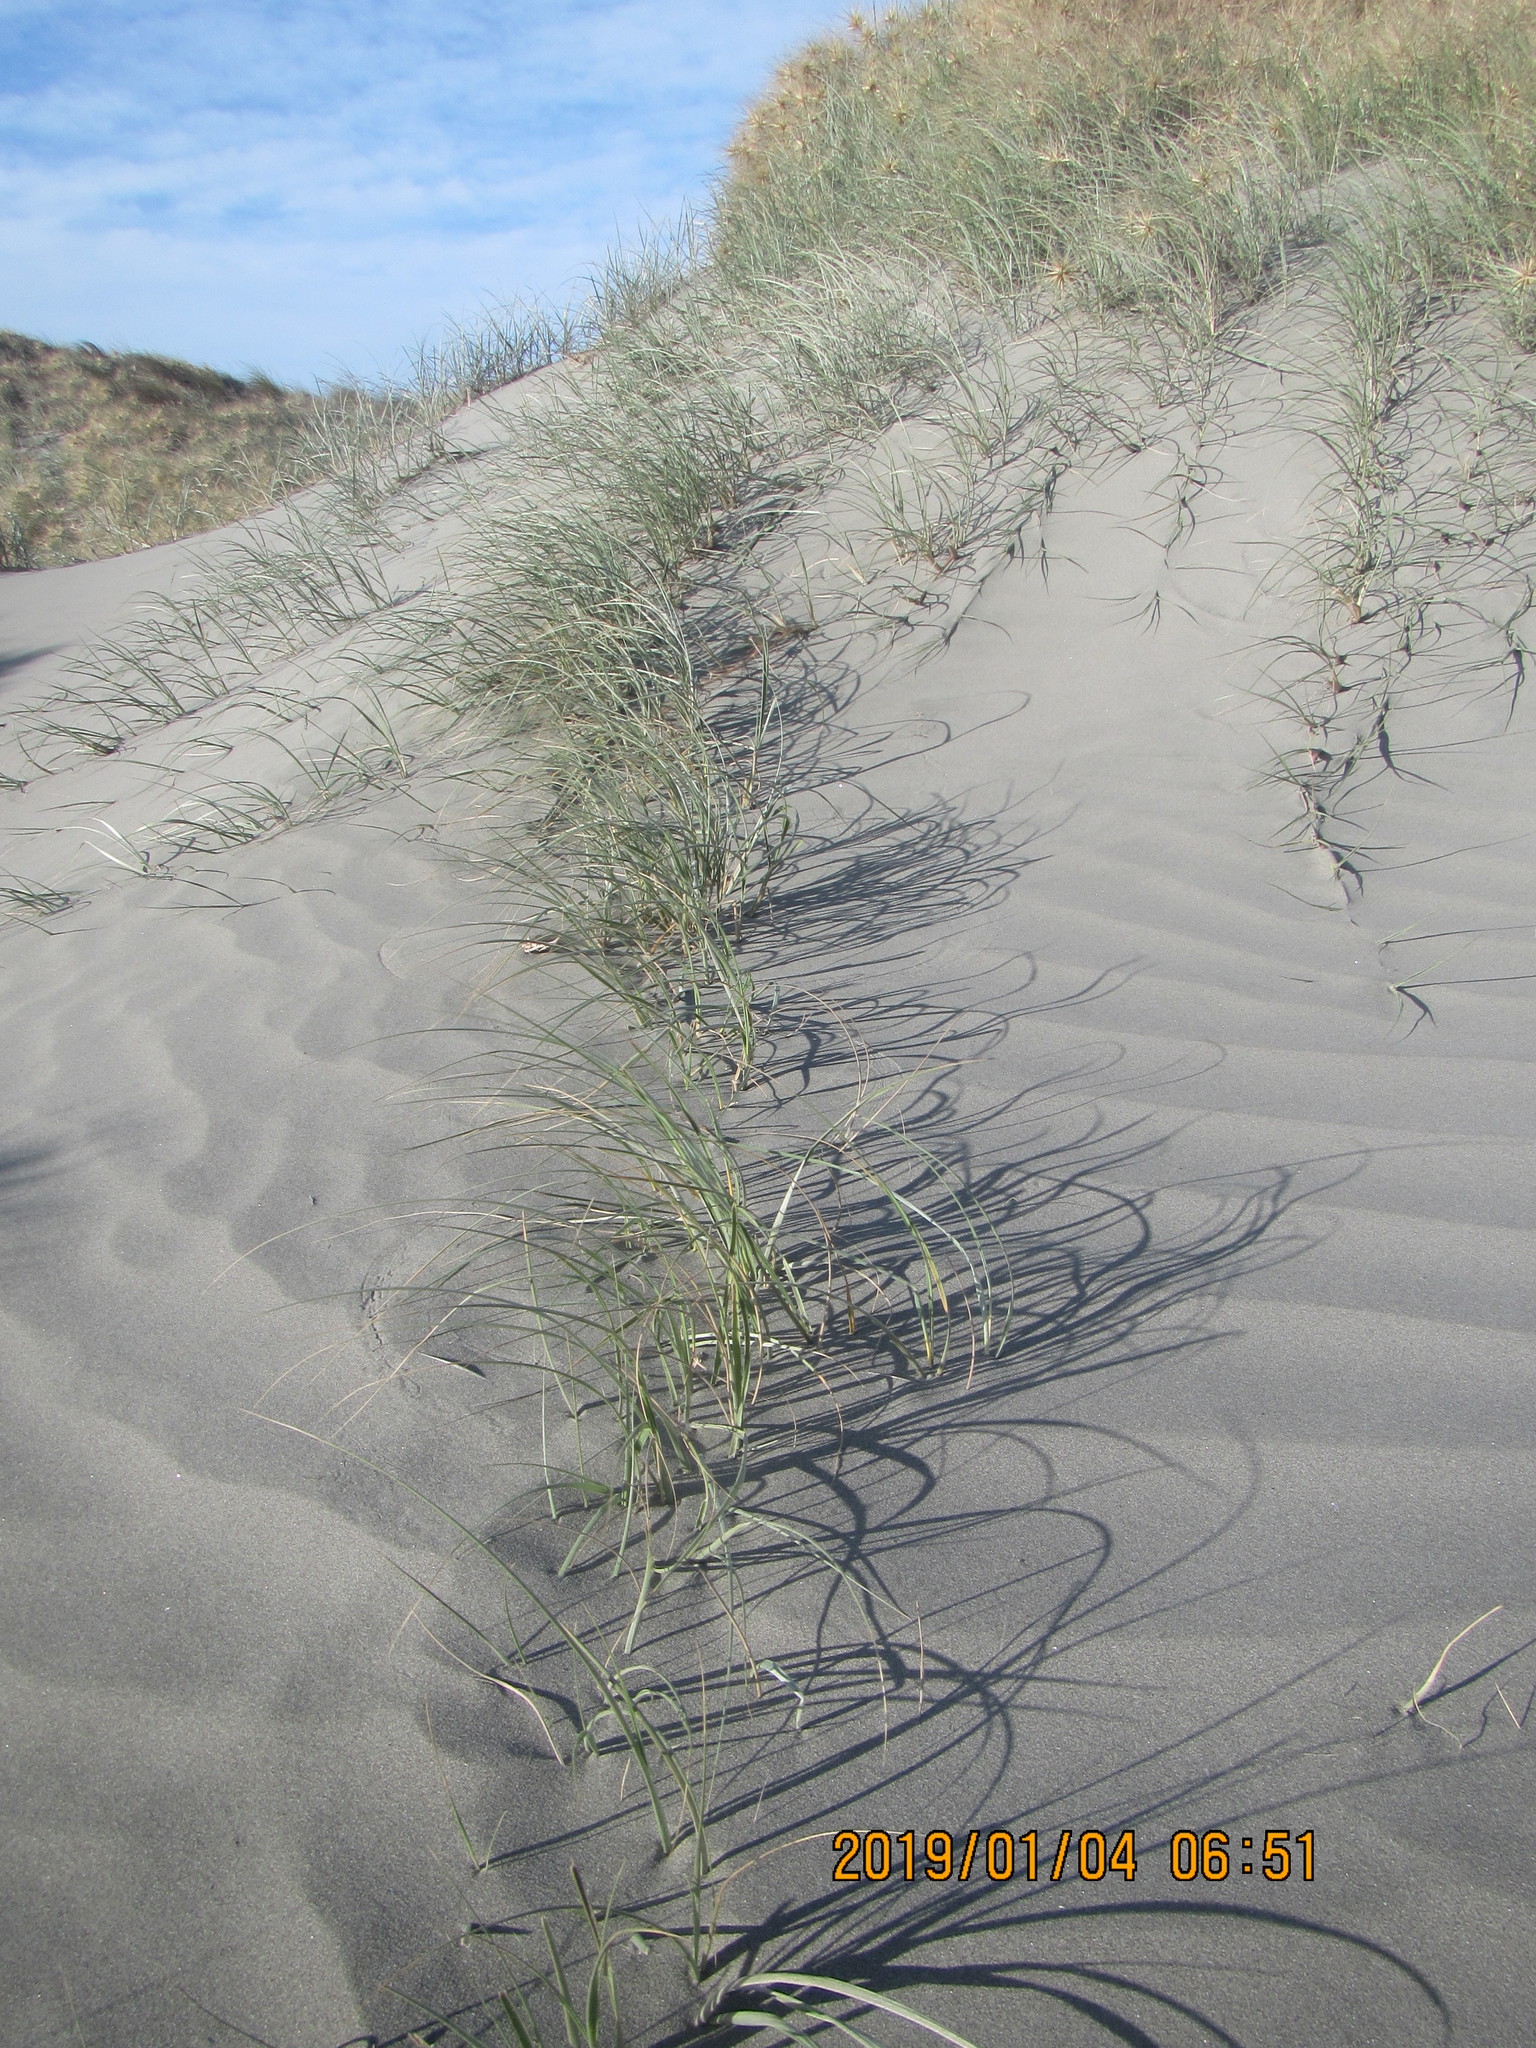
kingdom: Plantae
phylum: Tracheophyta
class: Liliopsida
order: Poales
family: Poaceae
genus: Spinifex
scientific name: Spinifex sericeus
